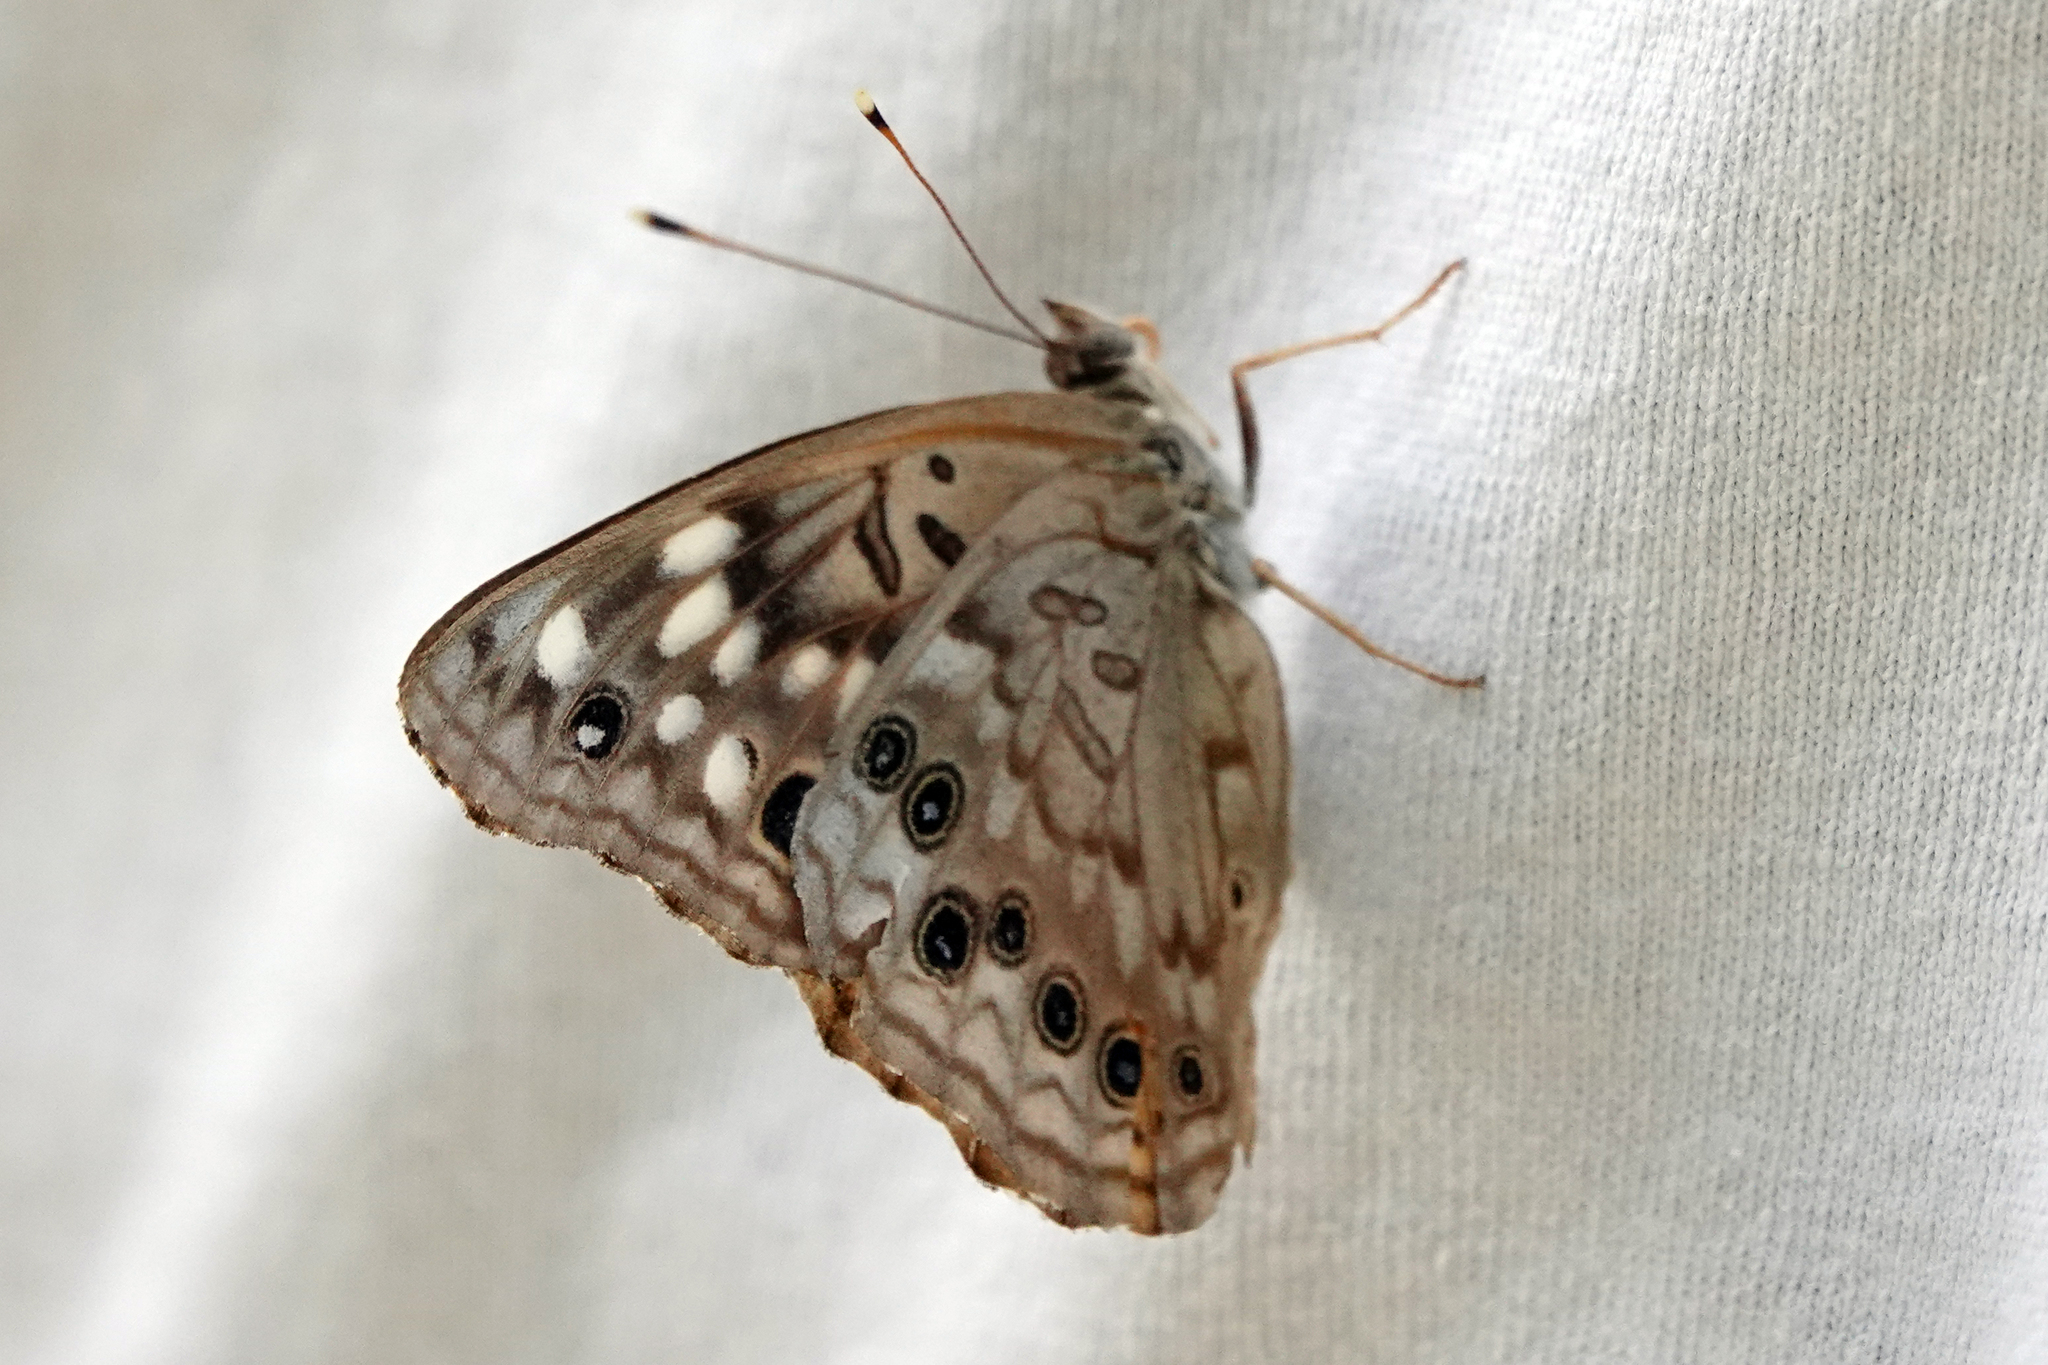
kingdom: Animalia
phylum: Arthropoda
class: Insecta
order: Lepidoptera
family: Nymphalidae
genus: Asterocampa
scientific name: Asterocampa celtis
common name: Hackberry emperor
